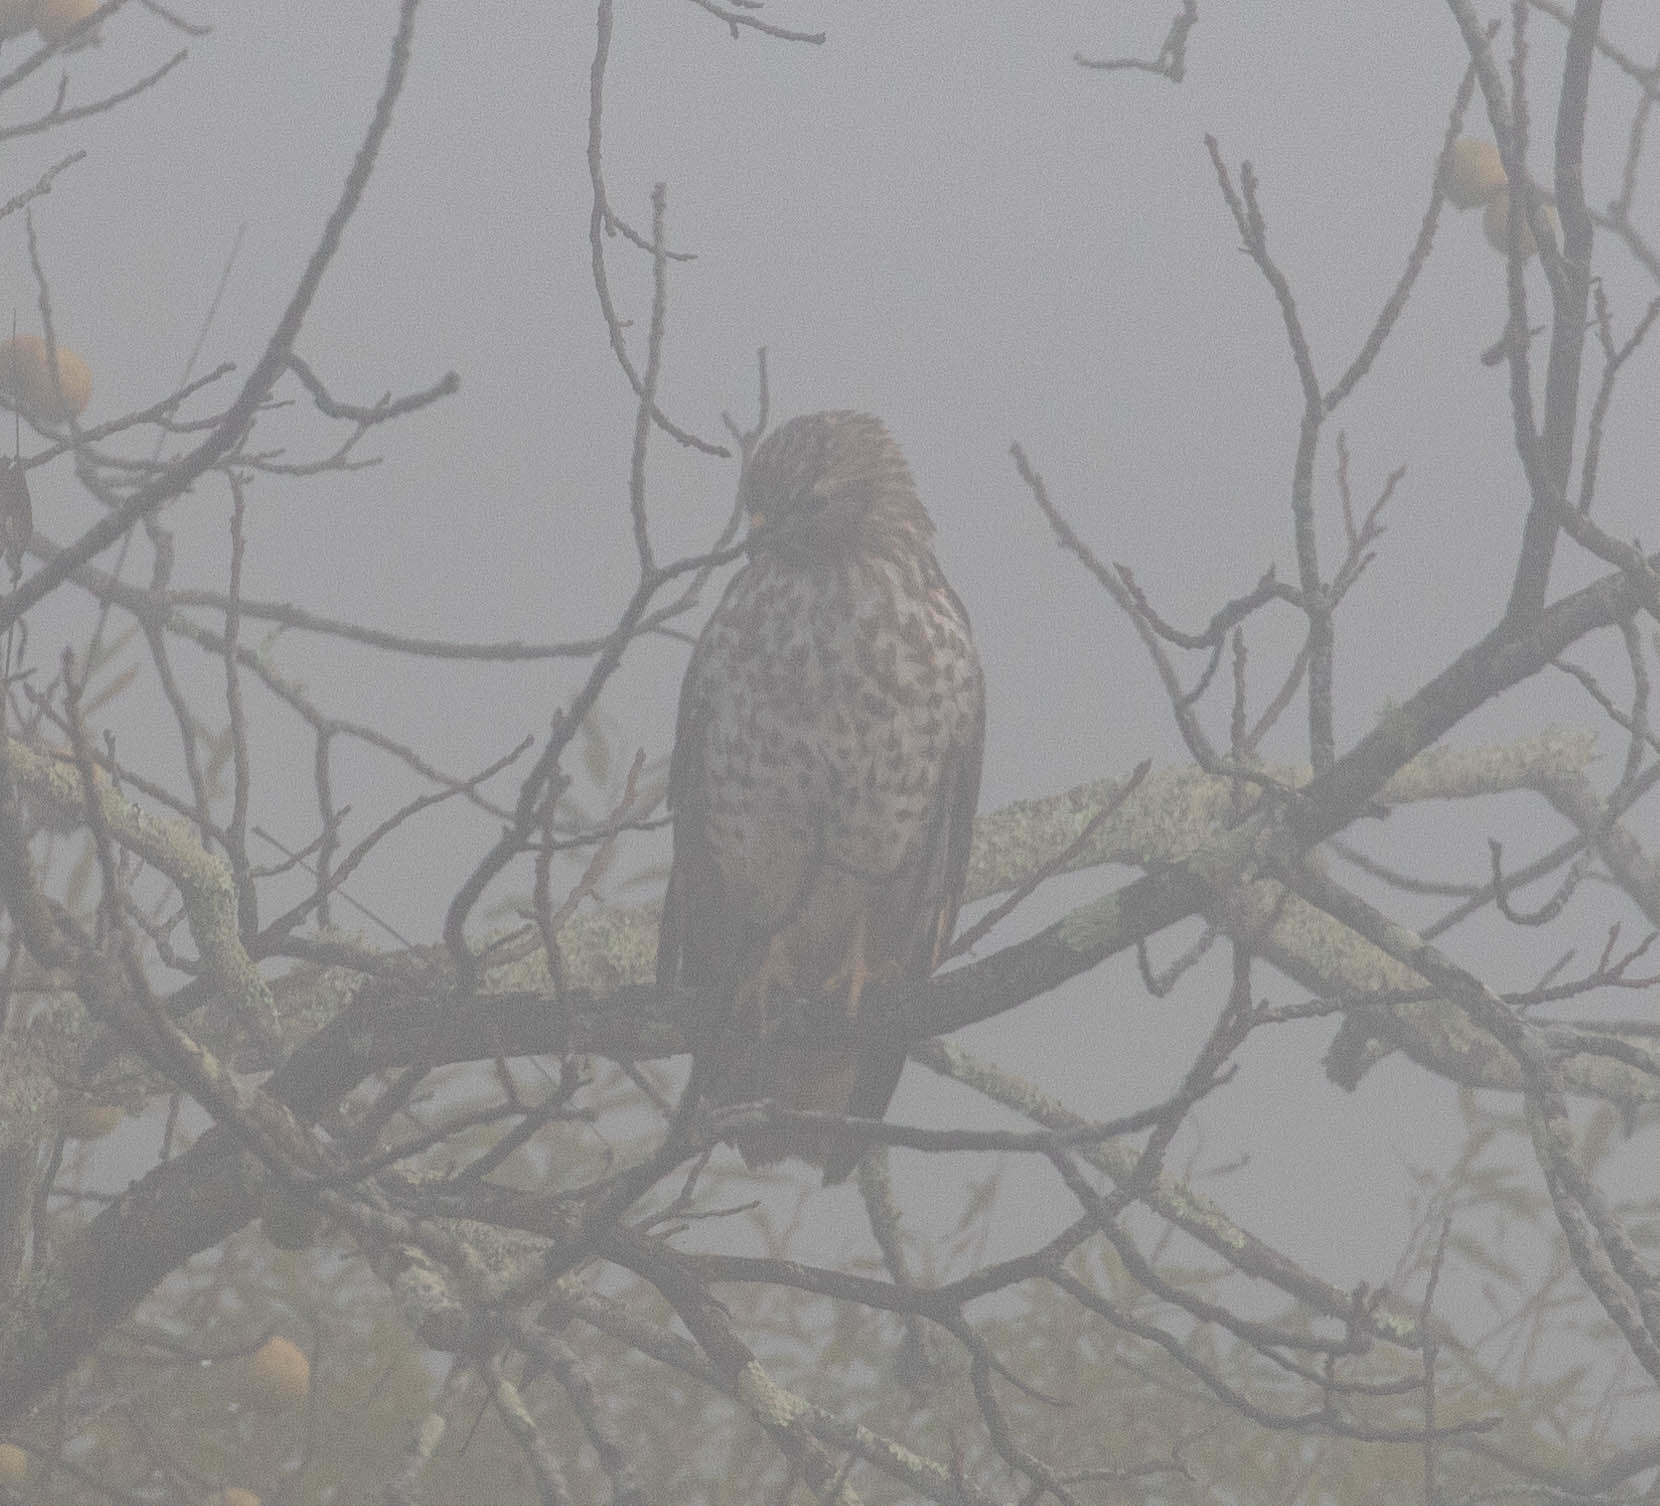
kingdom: Animalia
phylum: Chordata
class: Aves
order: Accipitriformes
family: Accipitridae
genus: Buteo
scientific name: Buteo lineatus
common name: Red-shouldered hawk
